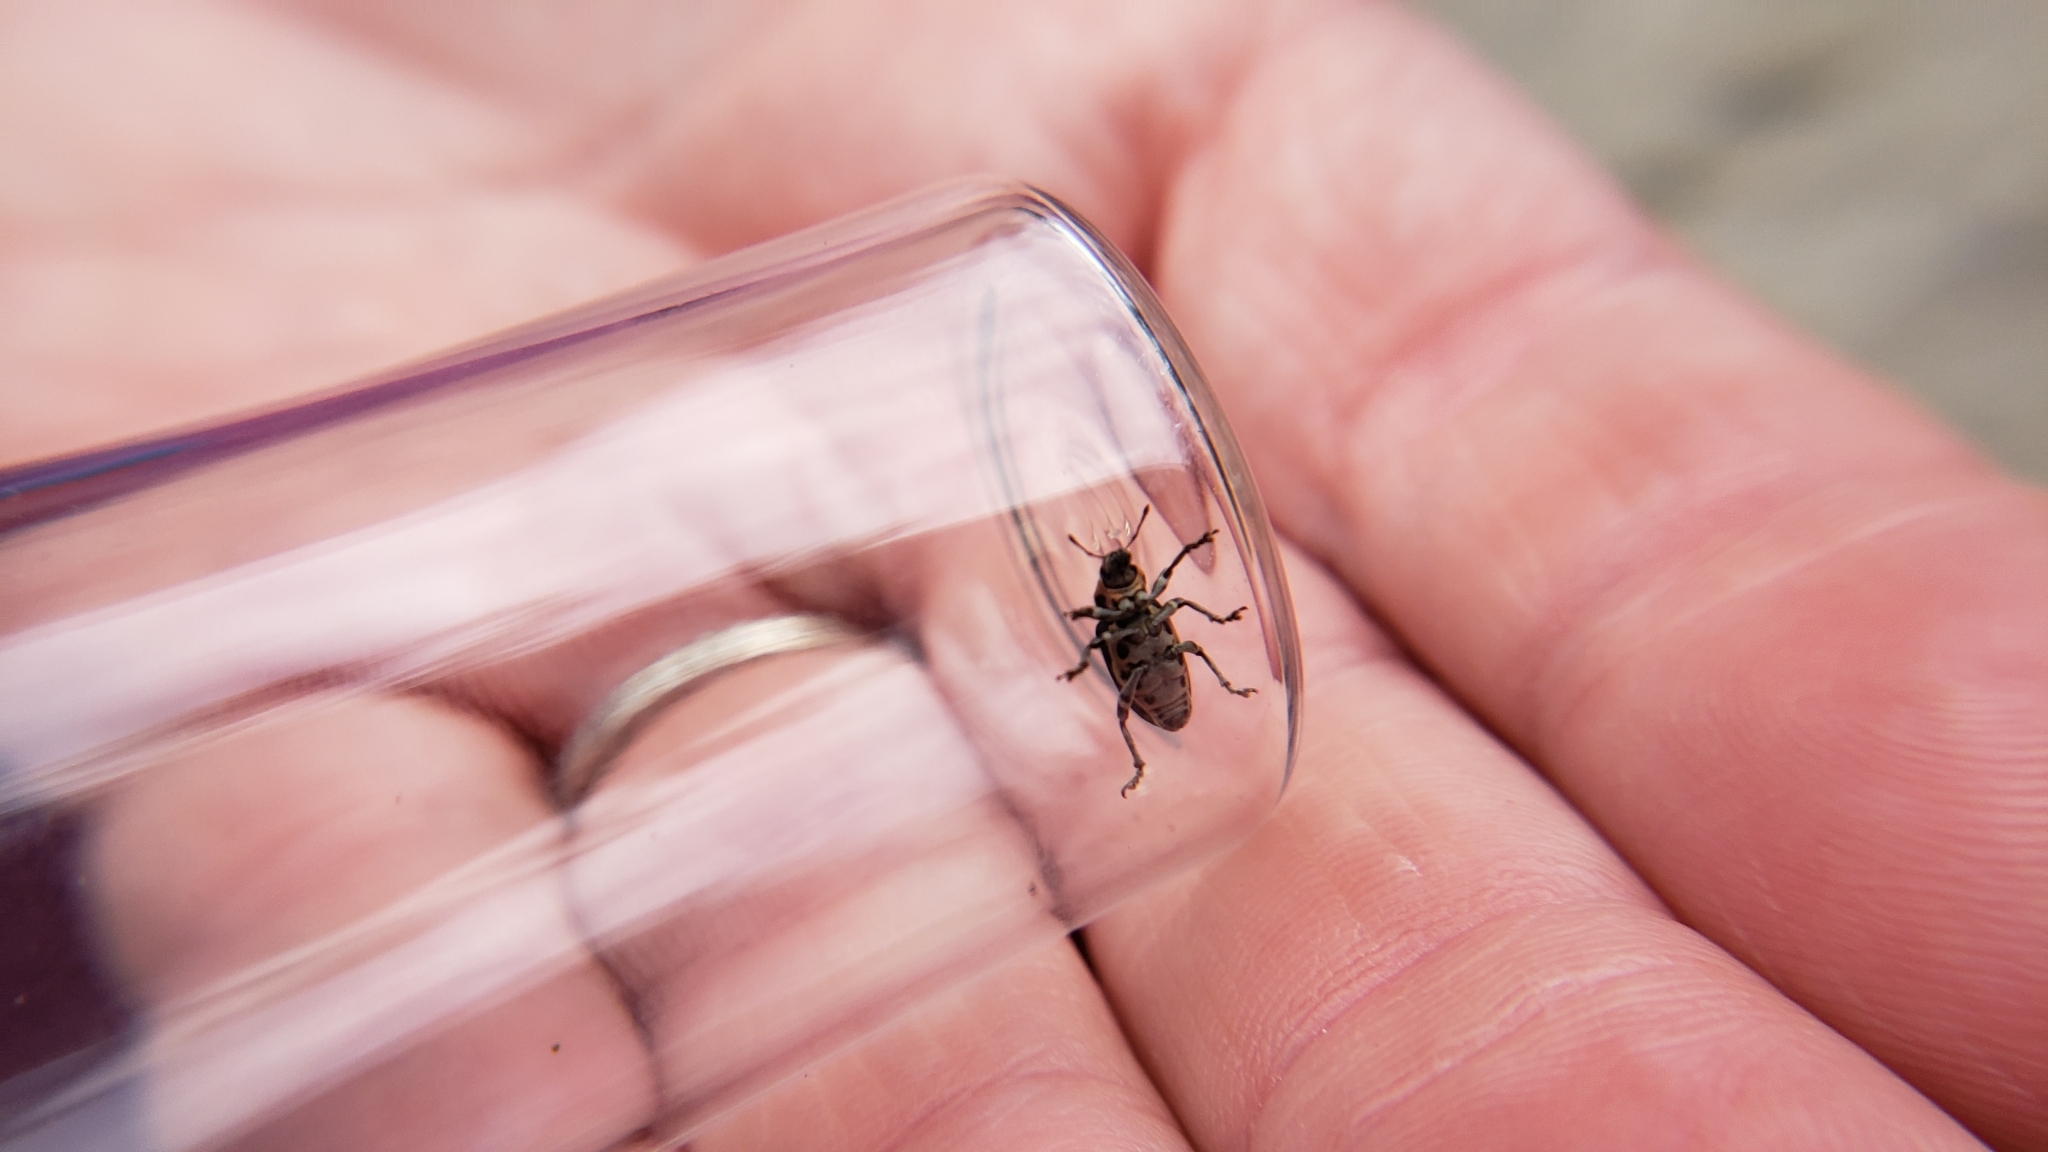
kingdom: Animalia
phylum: Arthropoda
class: Insecta
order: Coleoptera
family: Curculionidae
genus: Eudiagogus
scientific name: Eudiagogus maryae
